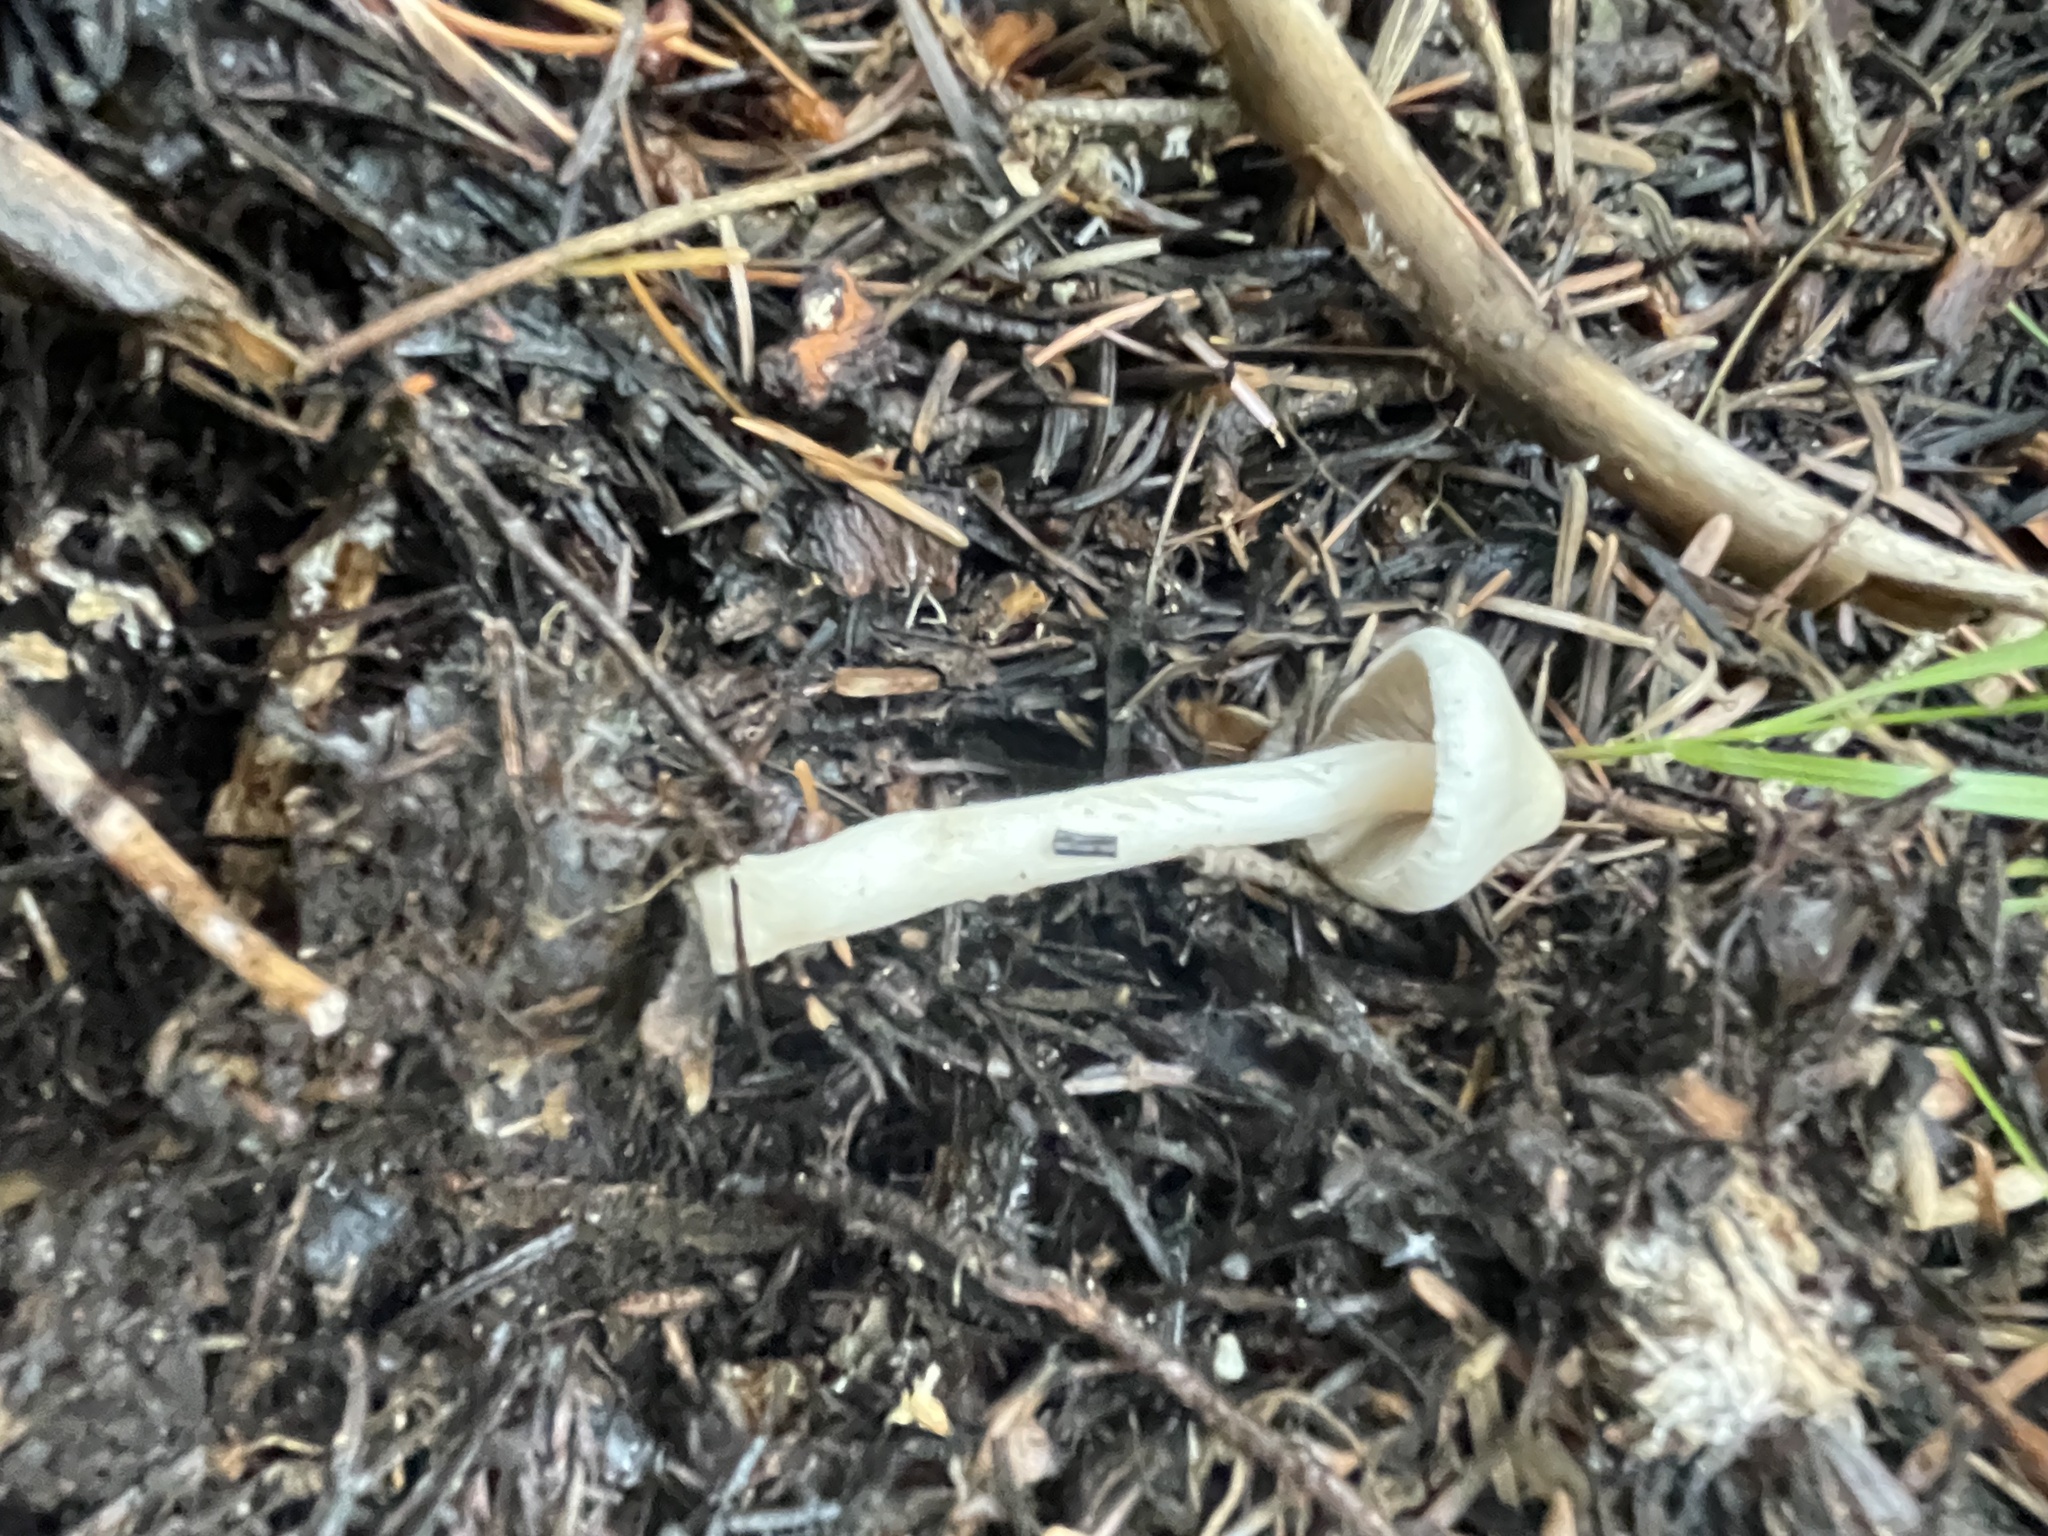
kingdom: Fungi
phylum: Basidiomycota
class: Agaricomycetes
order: Agaricales
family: Inocybaceae
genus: Inocybe
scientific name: Inocybe geophylla
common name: White fibrecap
